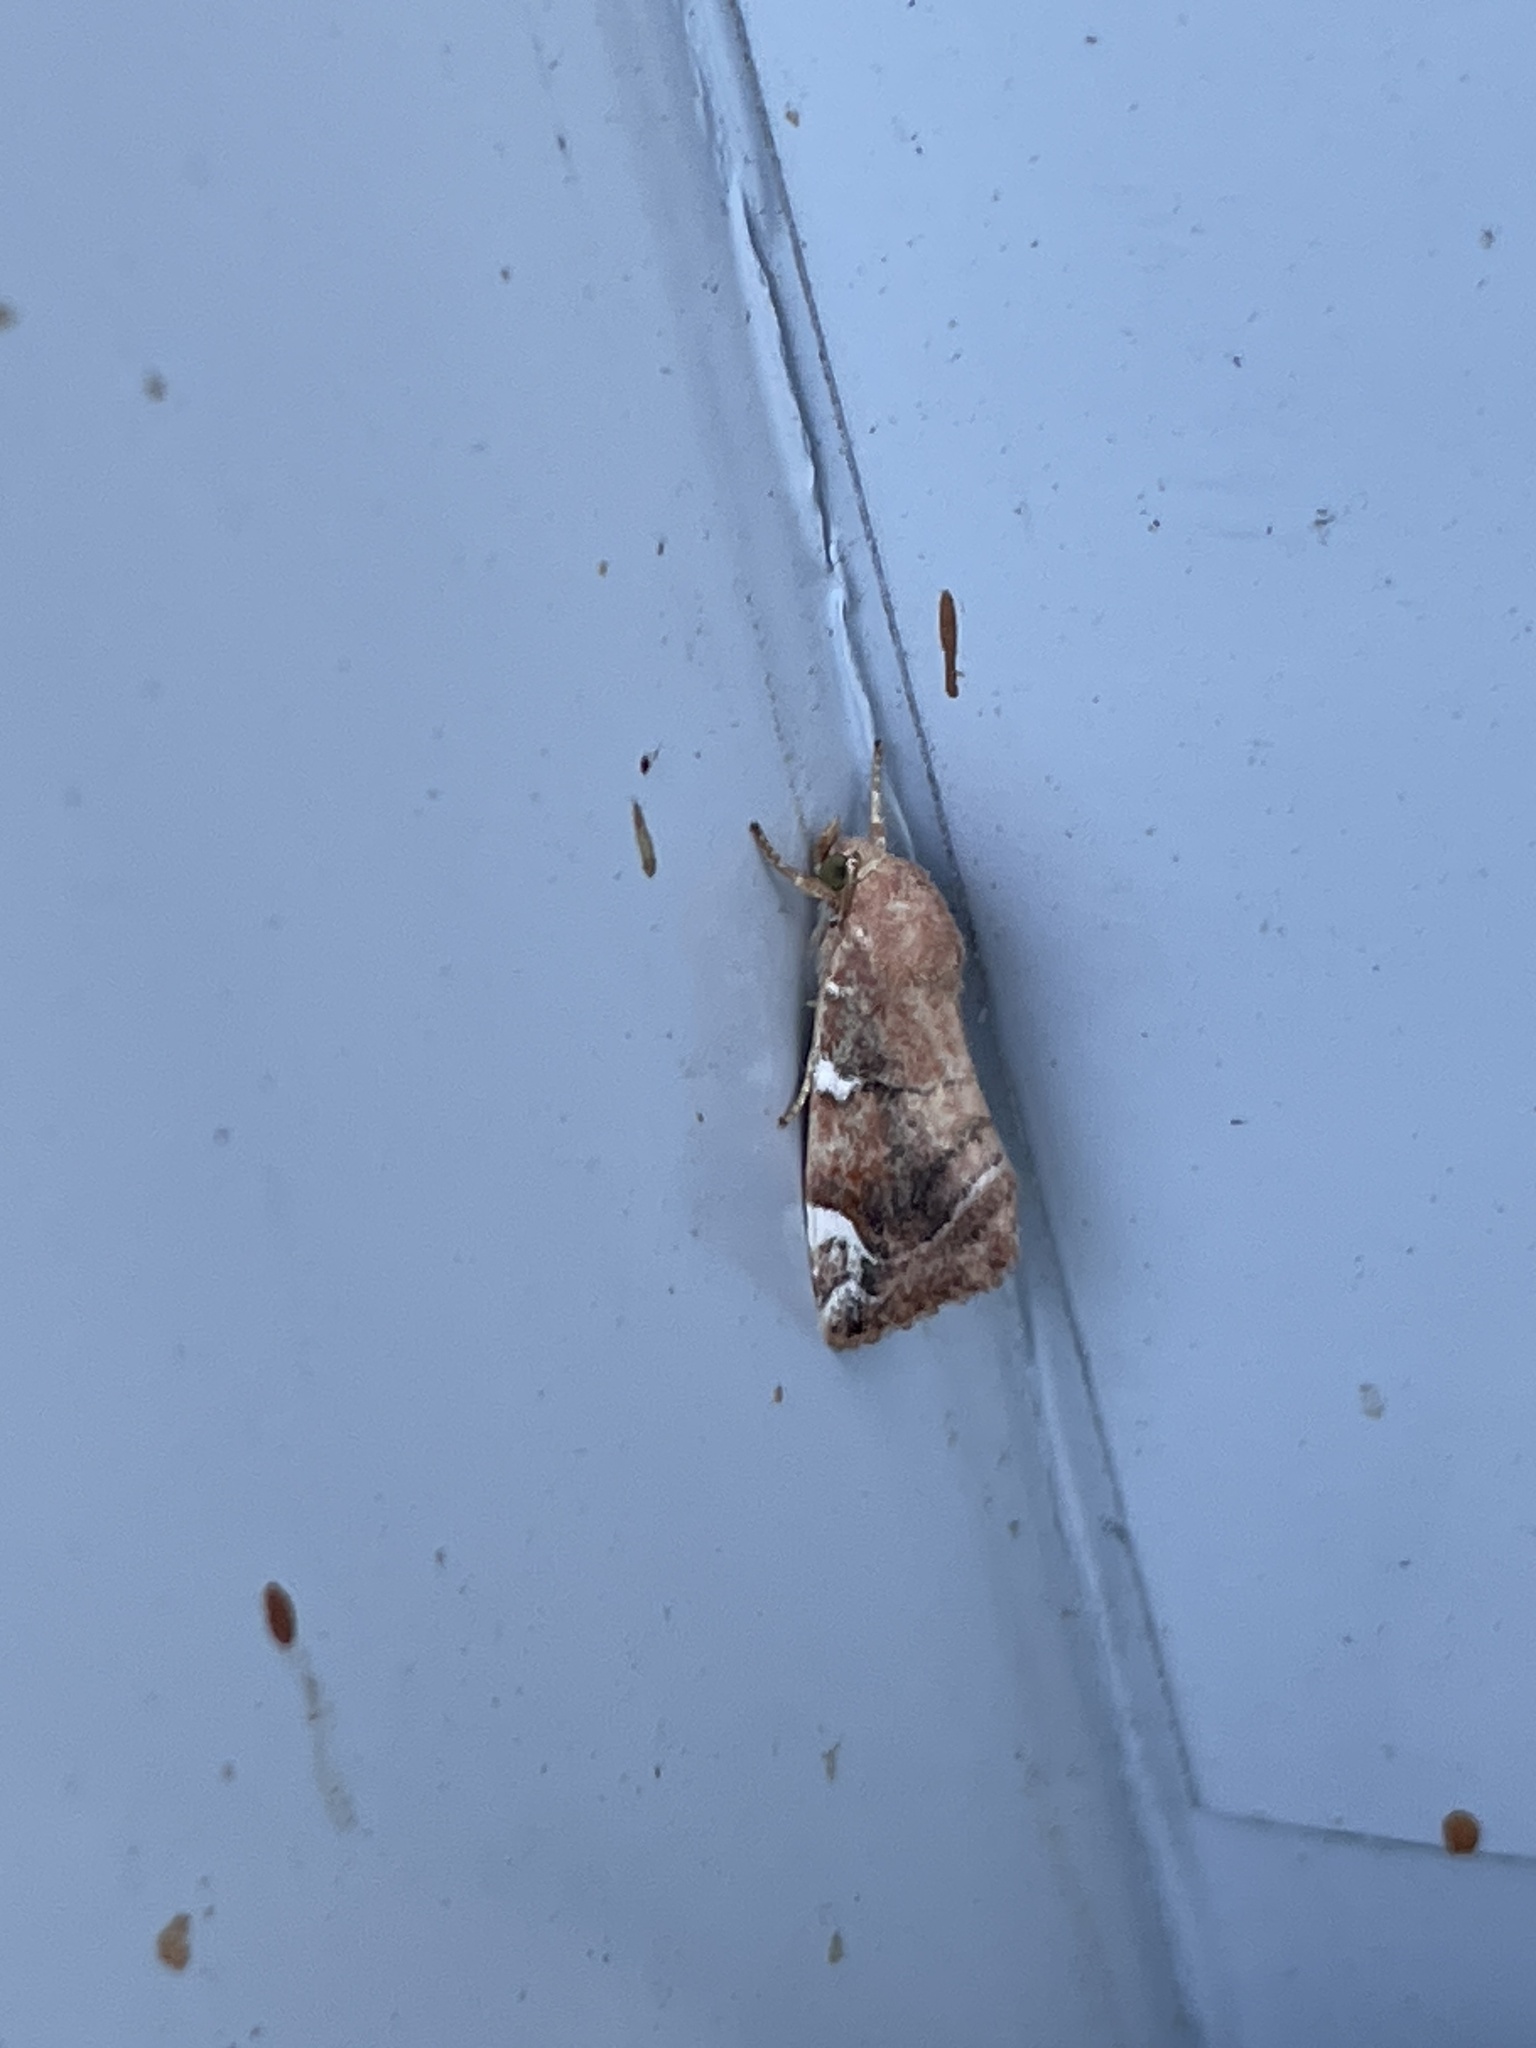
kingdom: Animalia
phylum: Arthropoda
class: Insecta
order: Lepidoptera
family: Noctuidae
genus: Cosmia
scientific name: Cosmia confinis
